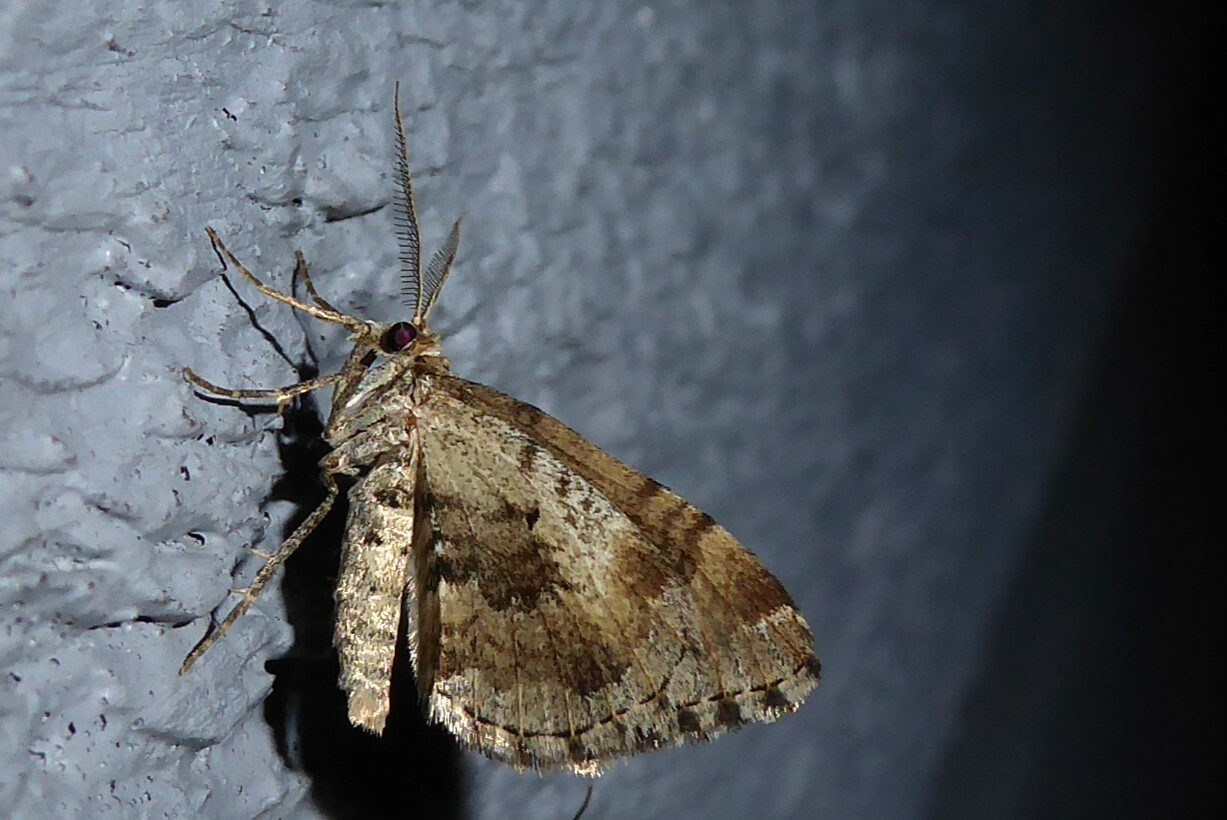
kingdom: Animalia
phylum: Arthropoda
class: Insecta
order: Lepidoptera
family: Geometridae
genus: Asaphodes
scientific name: Asaphodes aegrota
